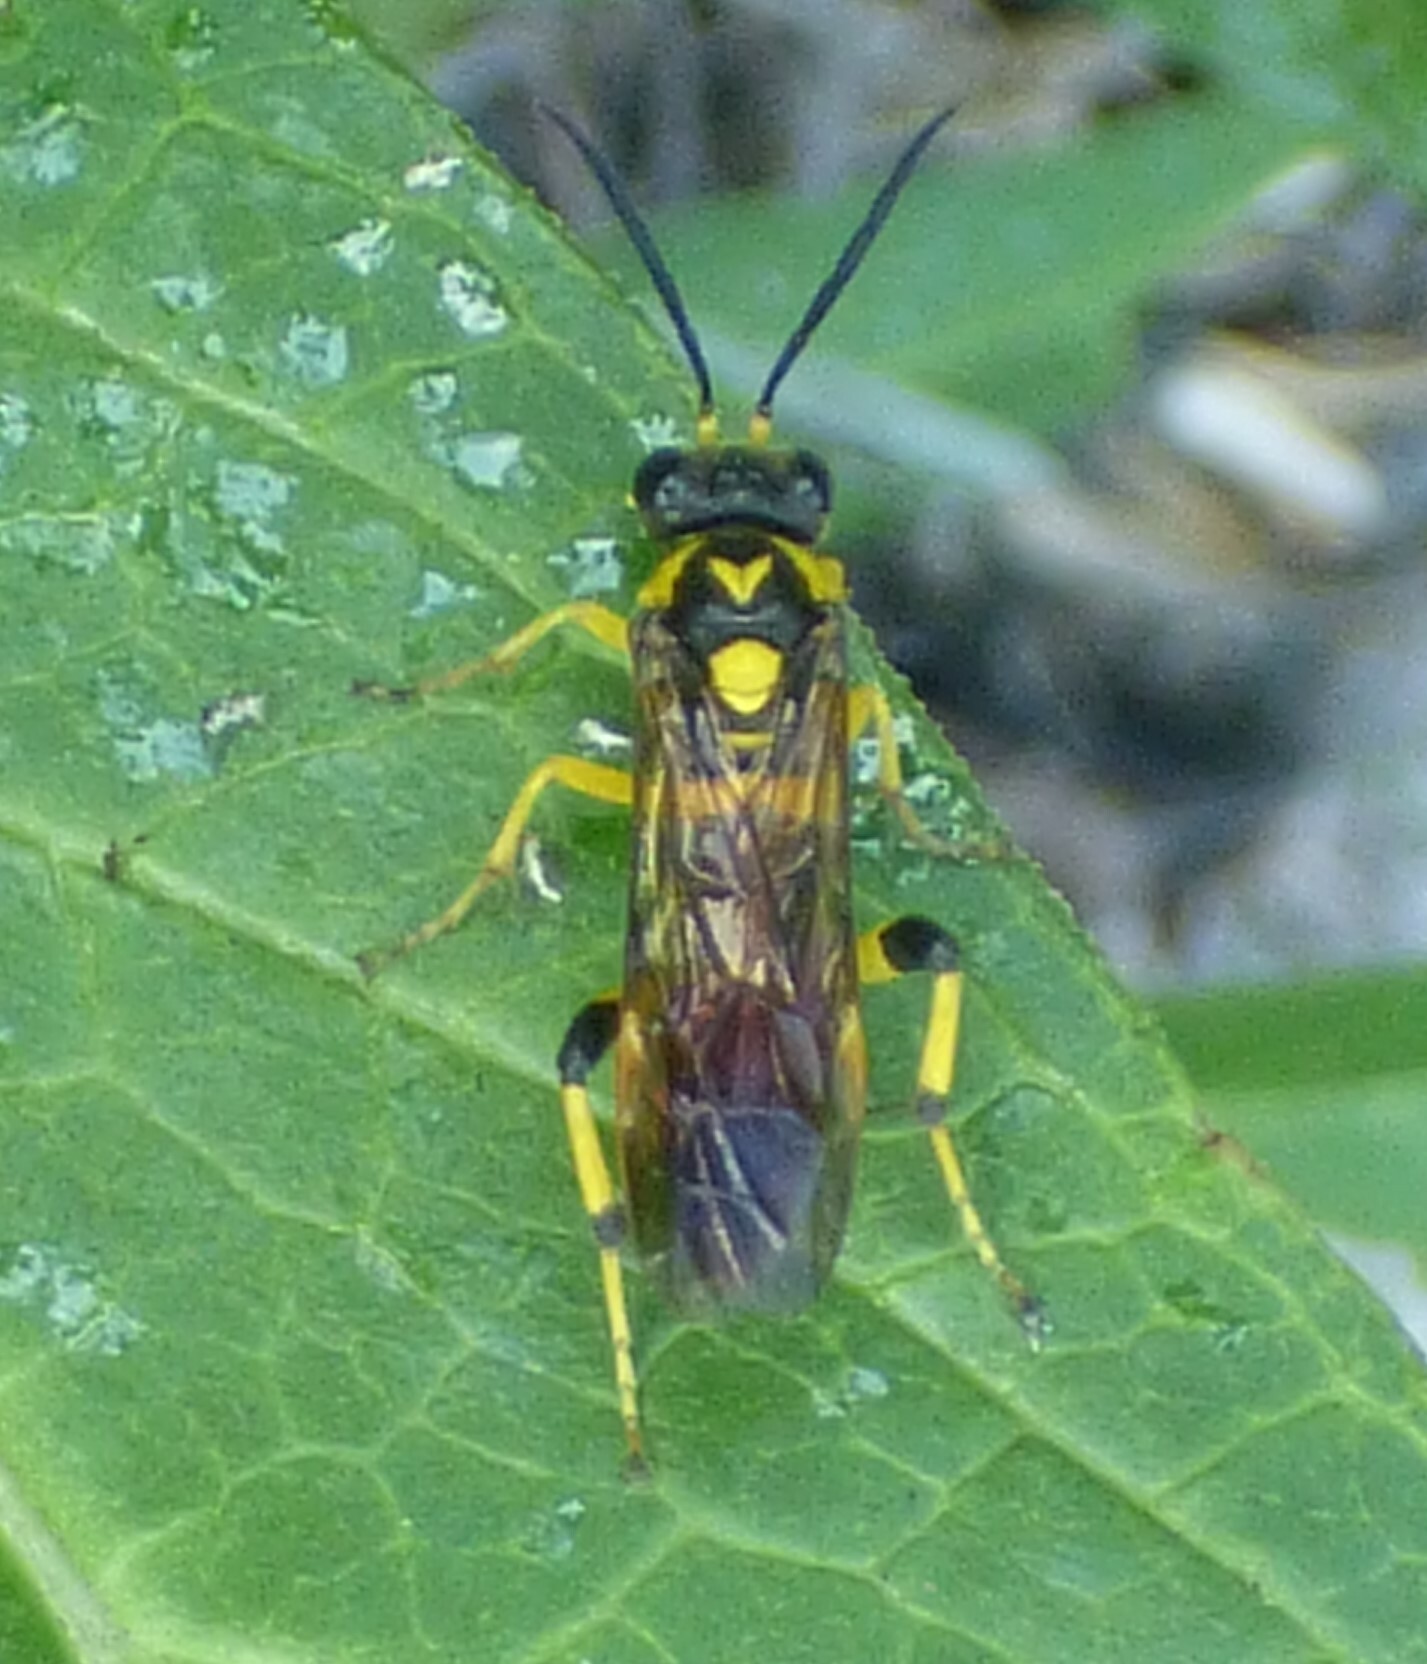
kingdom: Animalia
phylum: Arthropoda
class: Insecta
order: Hymenoptera
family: Tenthredinidae
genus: Macrophya
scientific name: Macrophya formosa
